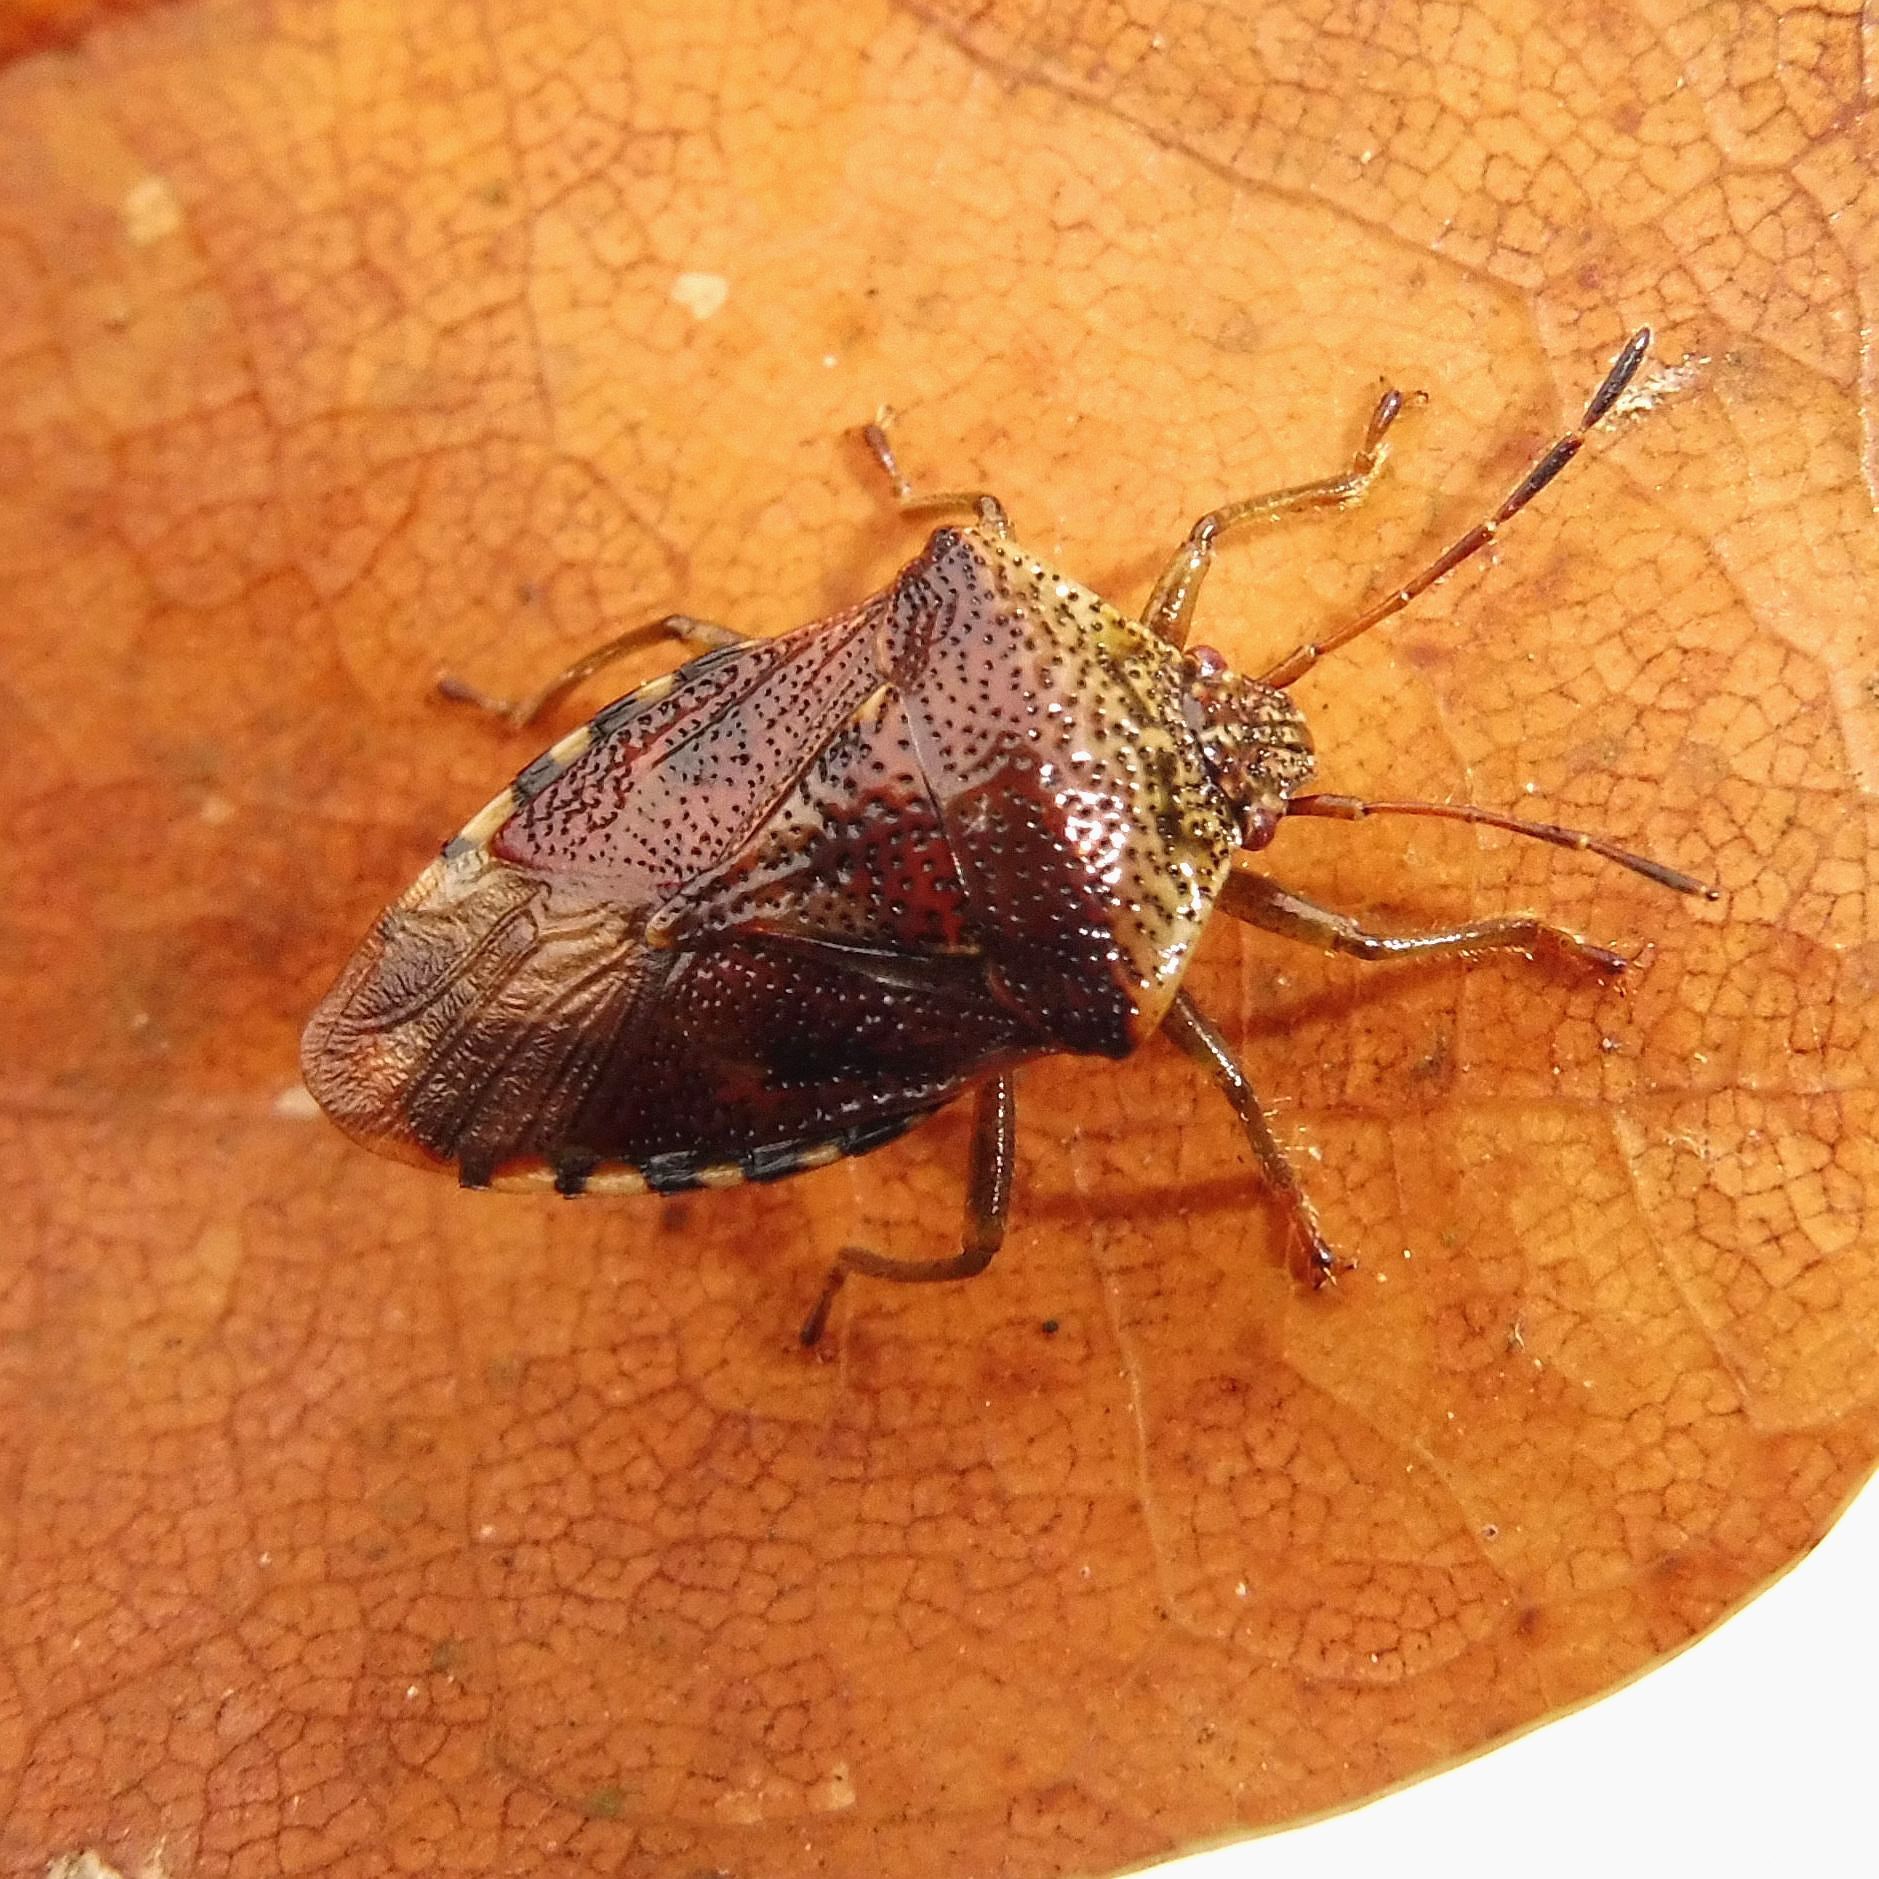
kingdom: Animalia
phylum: Arthropoda
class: Insecta
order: Hemiptera
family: Acanthosomatidae
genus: Elasmucha
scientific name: Elasmucha grisea
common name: Parent bug
